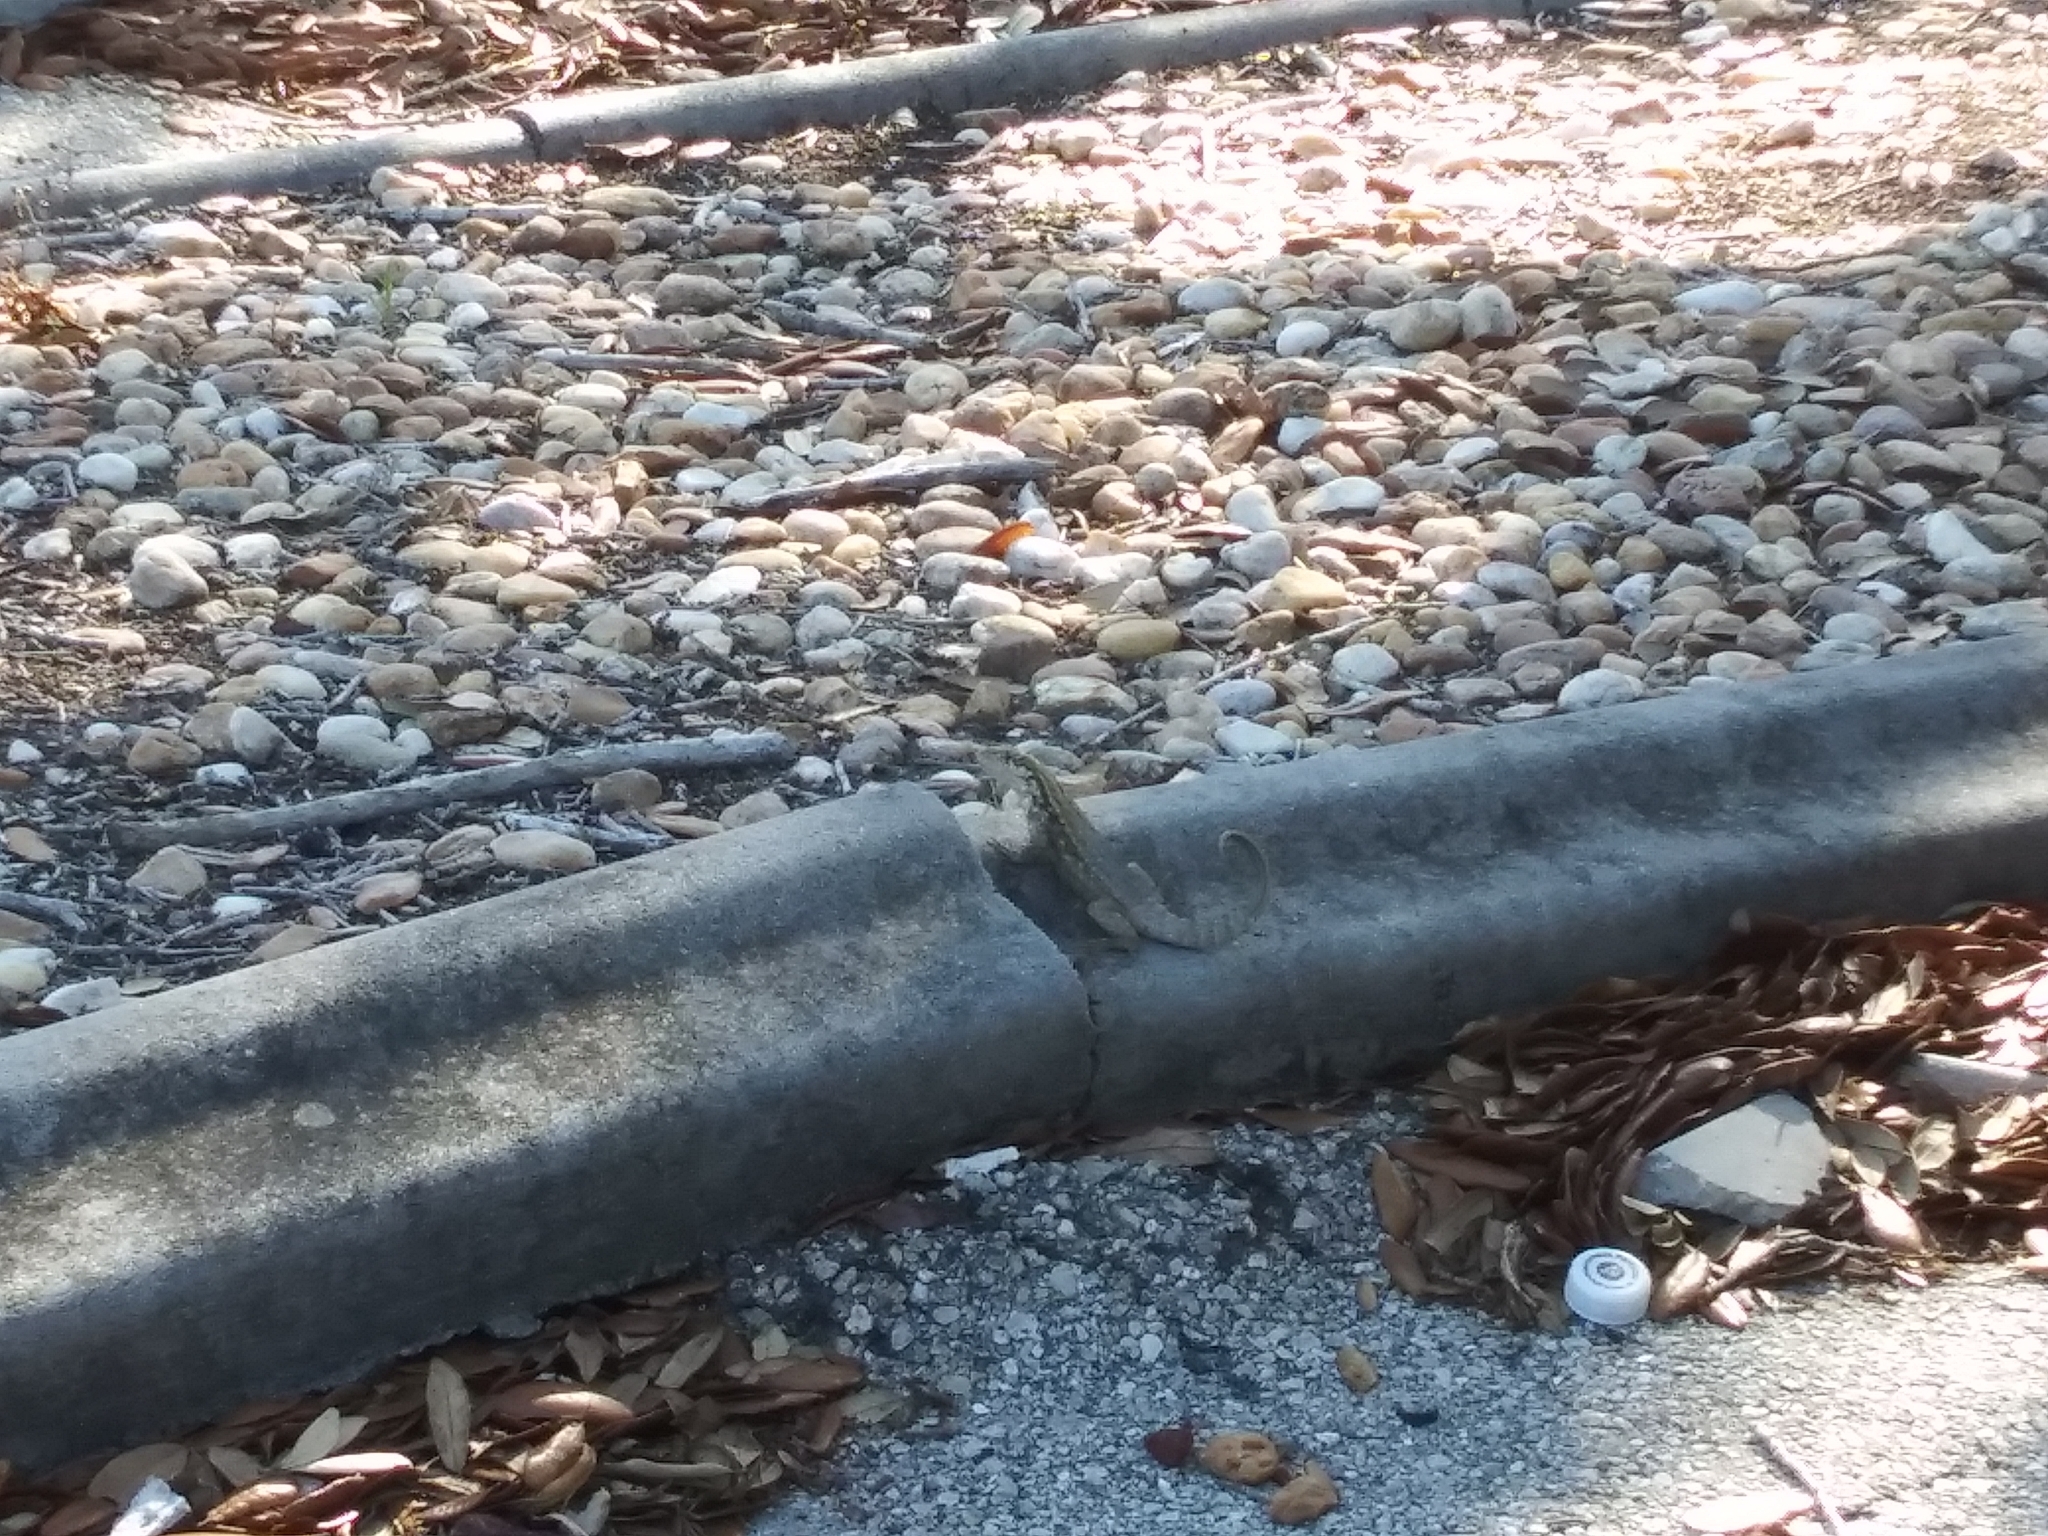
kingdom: Animalia
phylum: Chordata
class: Squamata
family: Leiocephalidae
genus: Leiocephalus
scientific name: Leiocephalus carinatus
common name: Northern curly-tailed lizard
